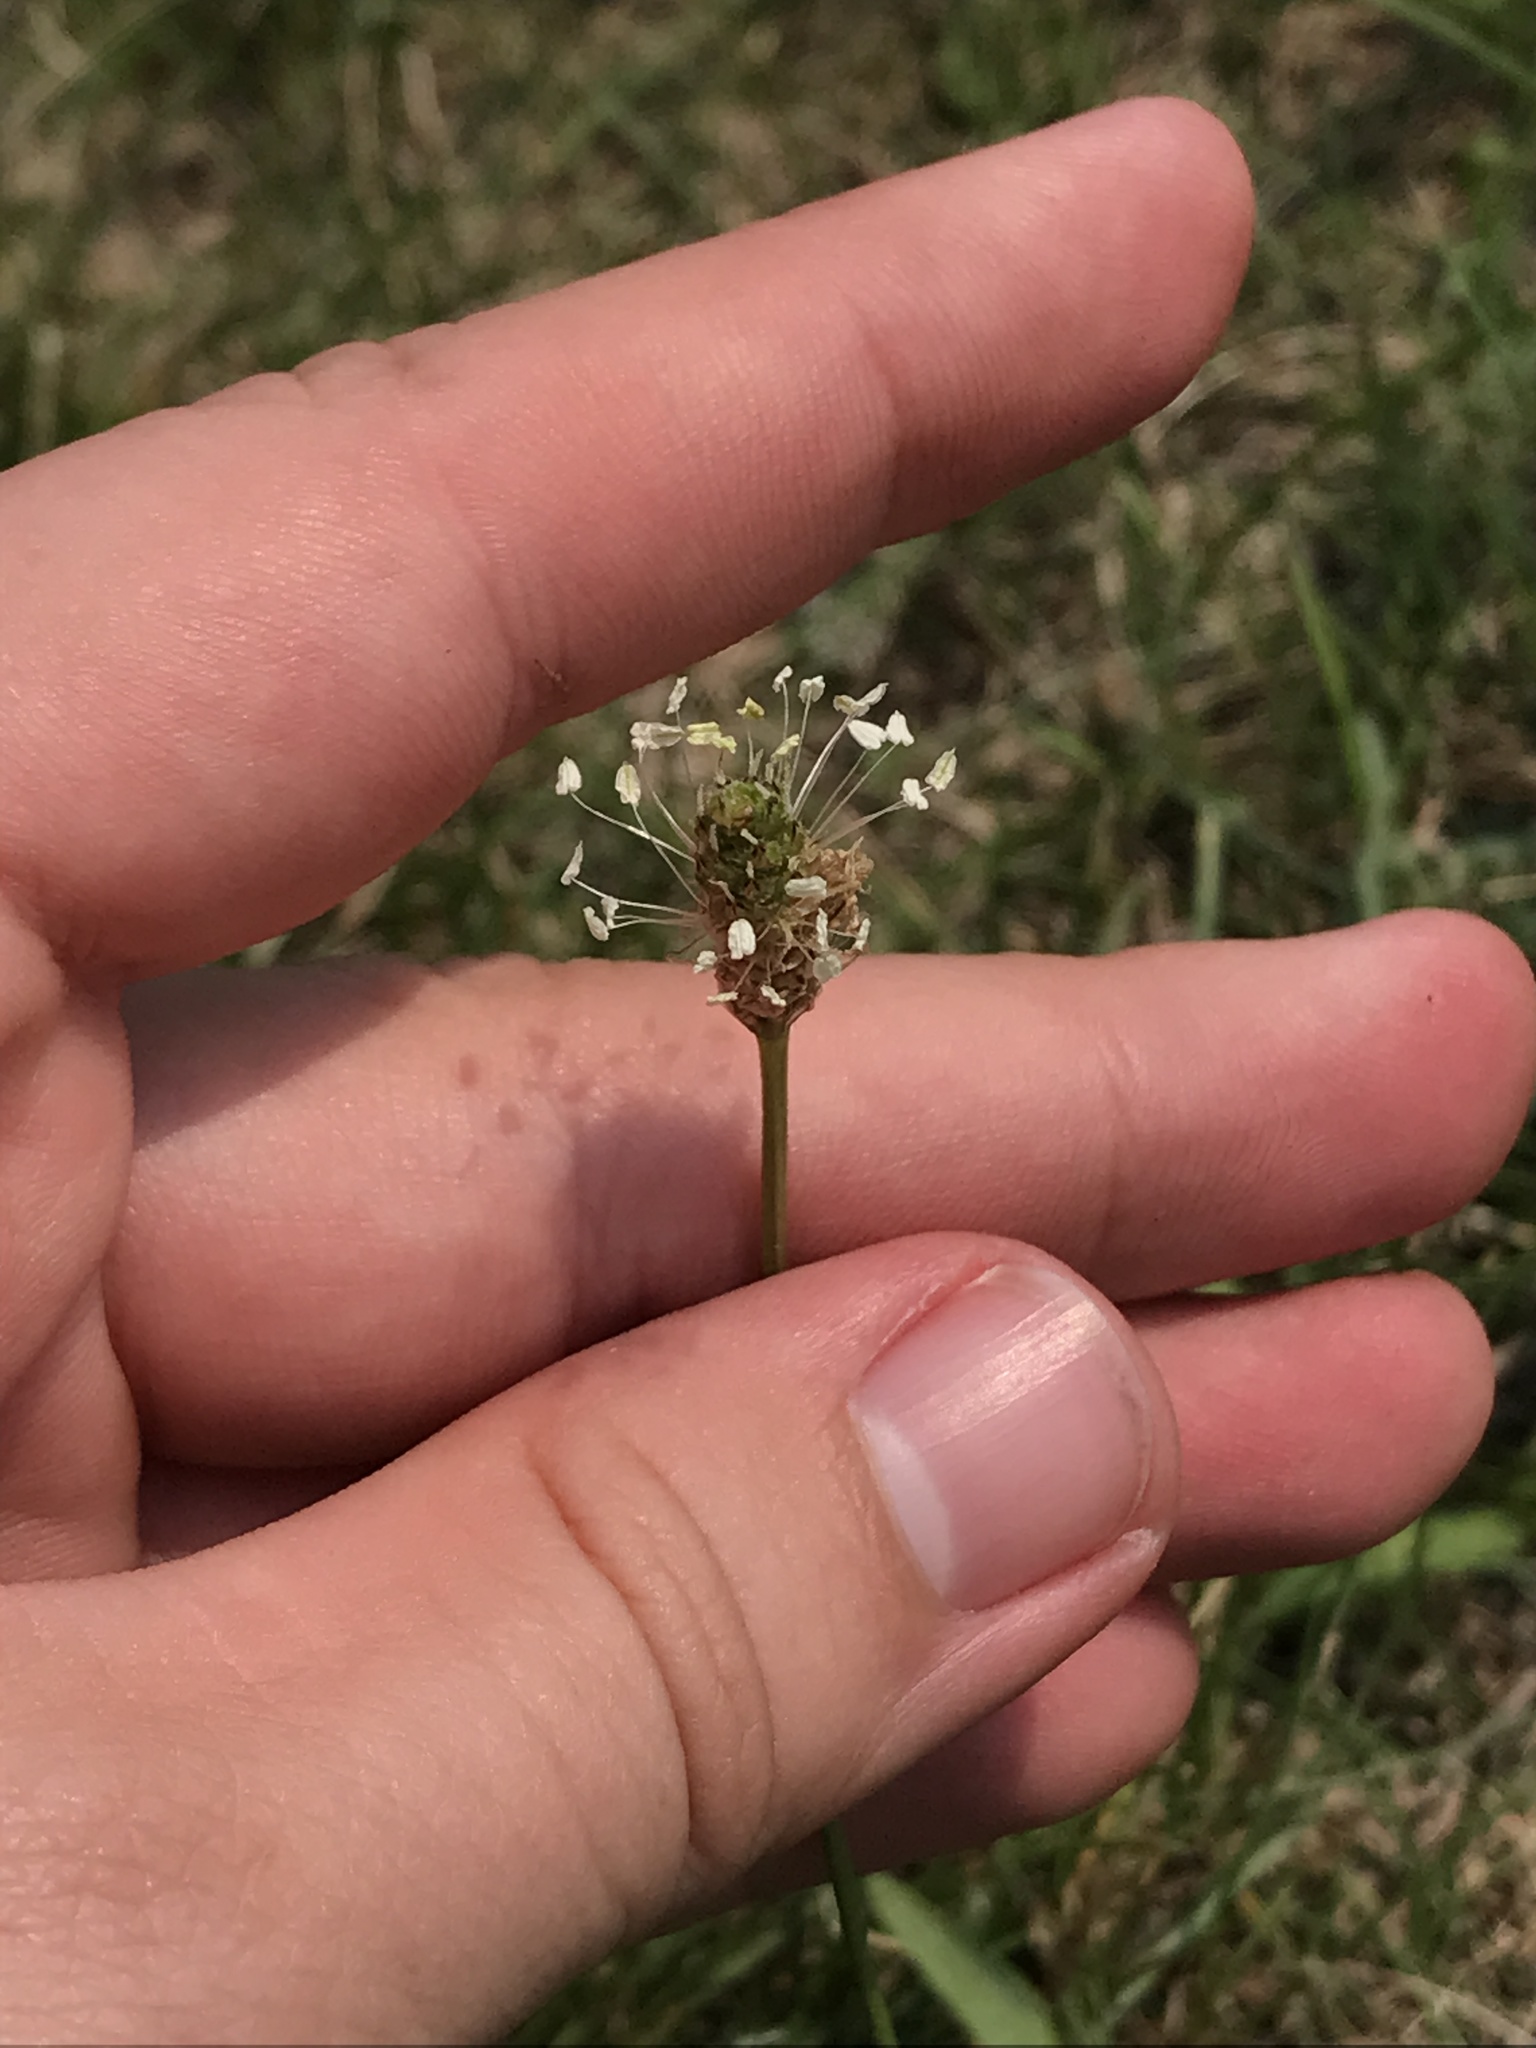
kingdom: Plantae
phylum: Tracheophyta
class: Magnoliopsida
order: Lamiales
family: Plantaginaceae
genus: Plantago
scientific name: Plantago lanceolata
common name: Ribwort plantain
